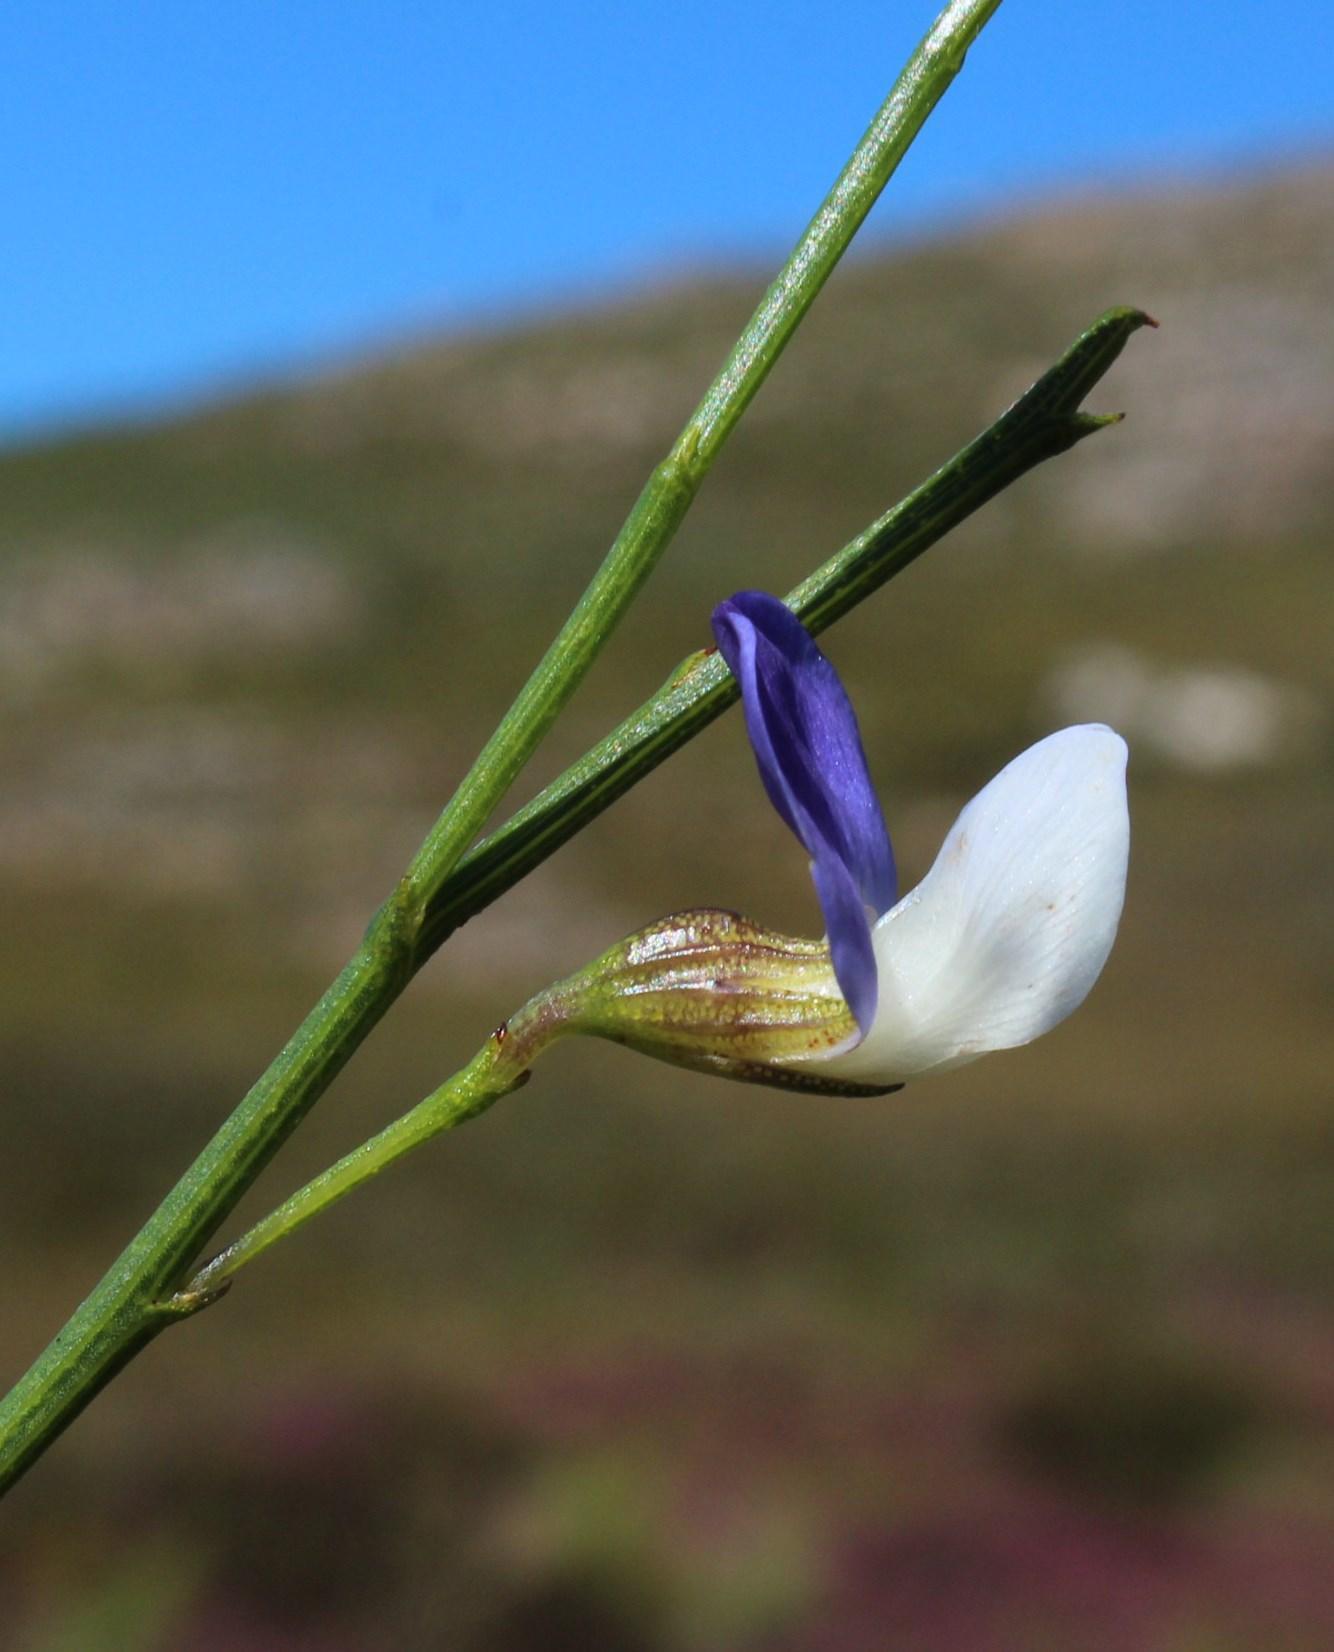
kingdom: Plantae
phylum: Tracheophyta
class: Magnoliopsida
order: Fabales
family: Fabaceae
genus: Psoralea
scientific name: Psoralea usitata
